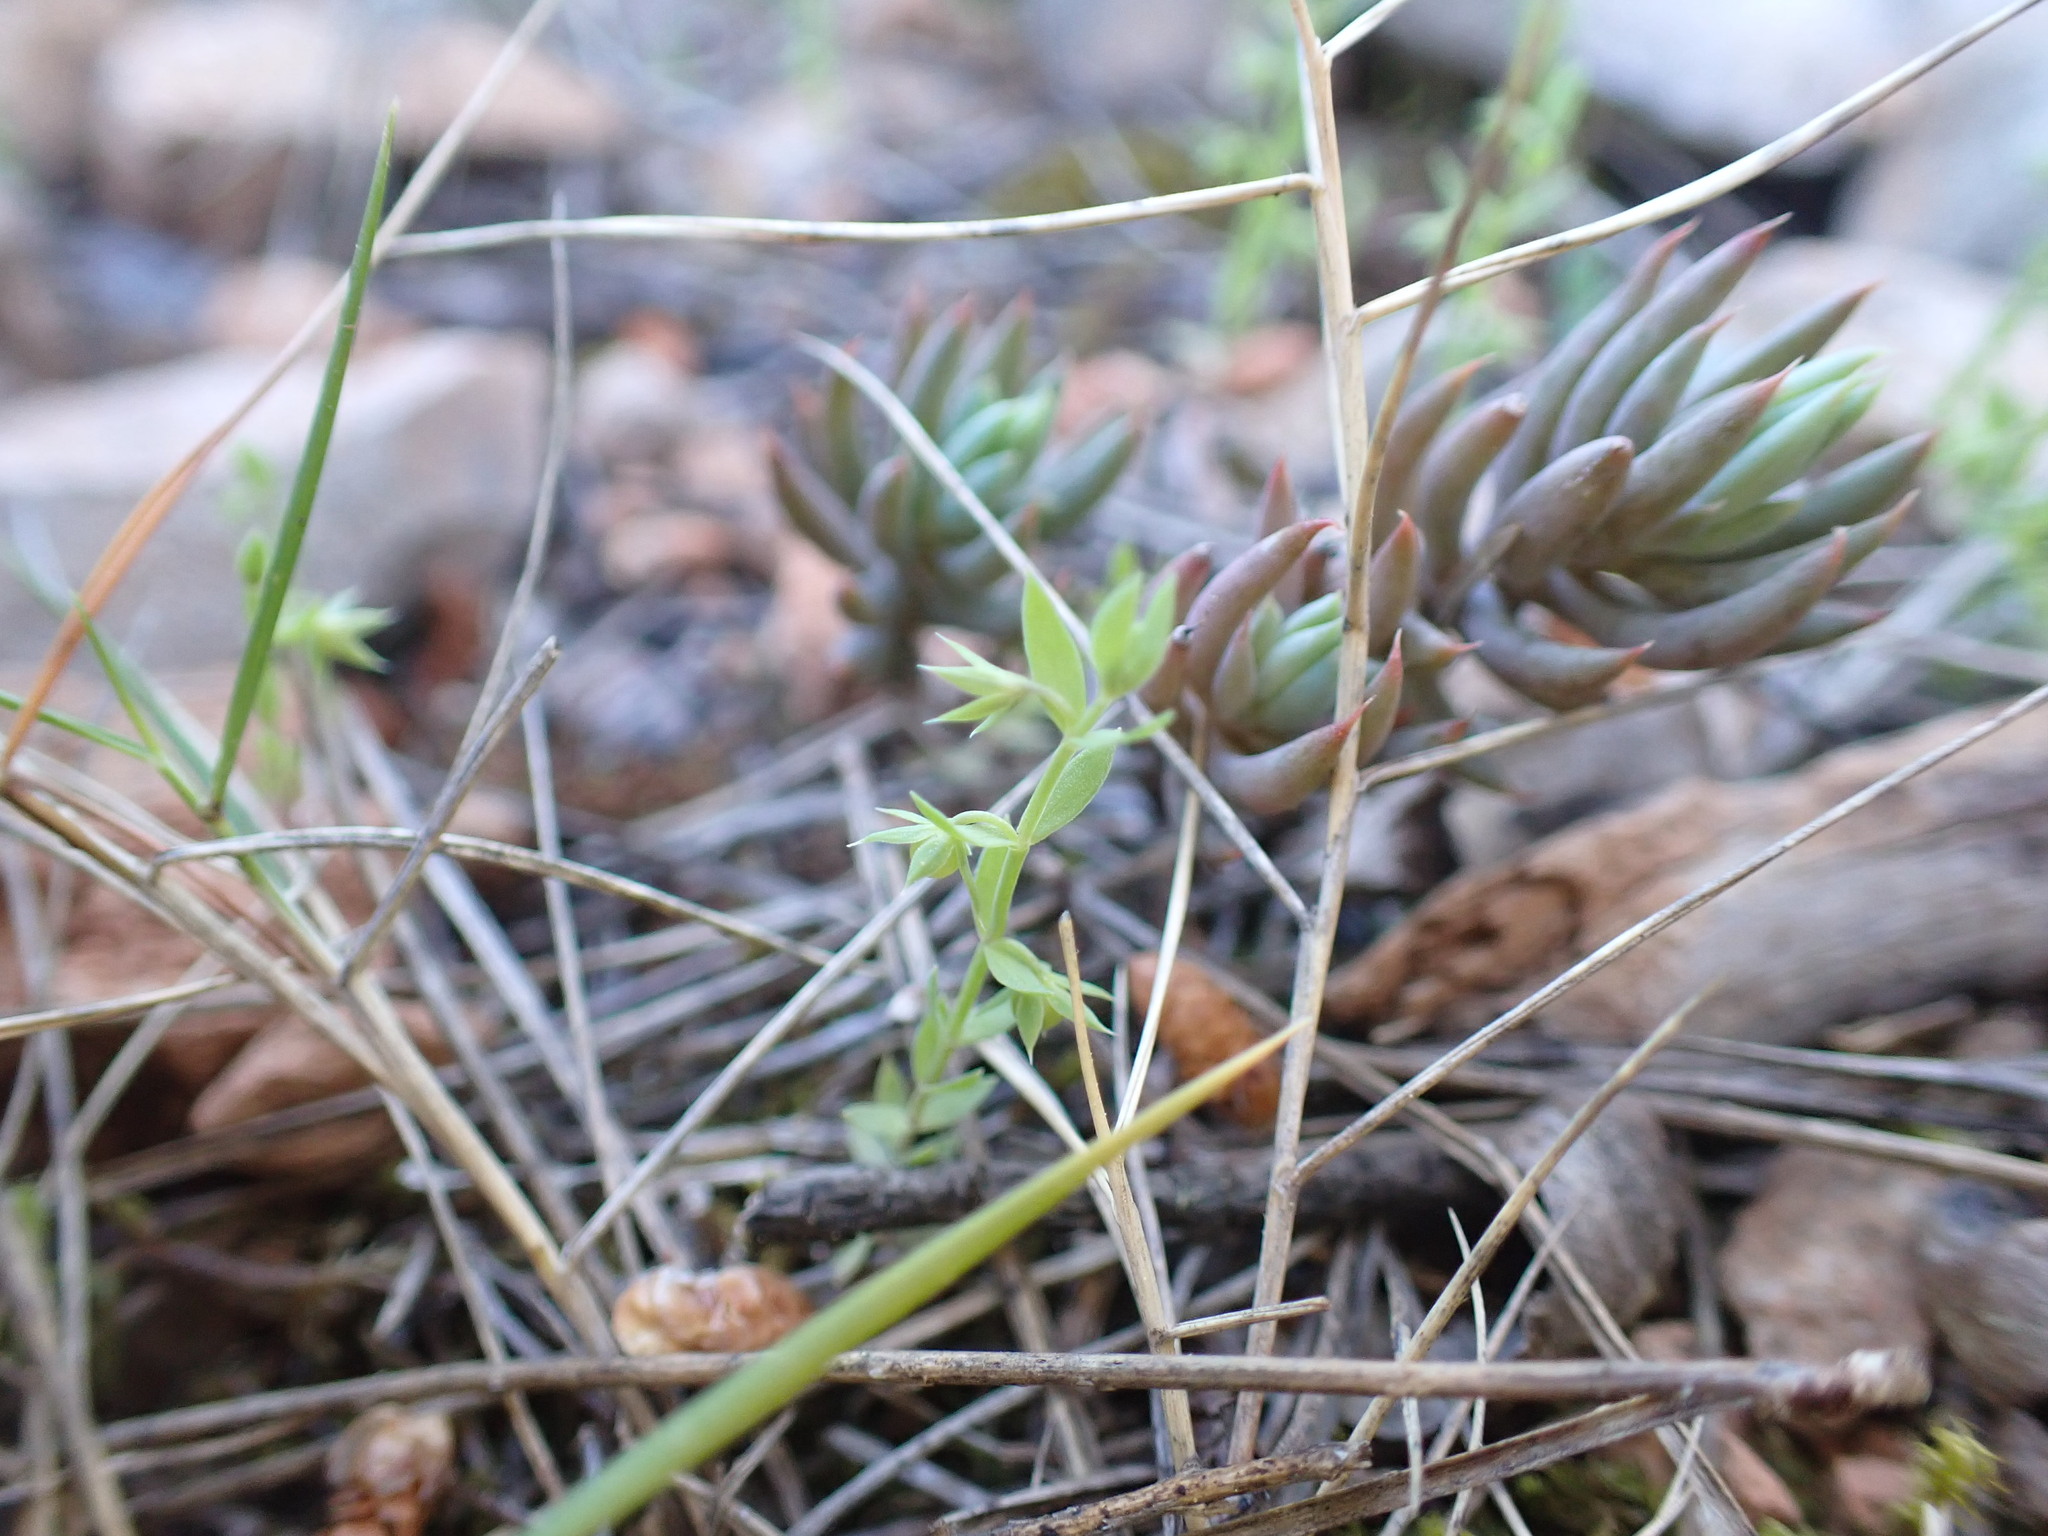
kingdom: Plantae
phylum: Tracheophyta
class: Magnoliopsida
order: Ericales
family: Primulaceae
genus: Lysimachia
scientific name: Lysimachia linum-stellatum
